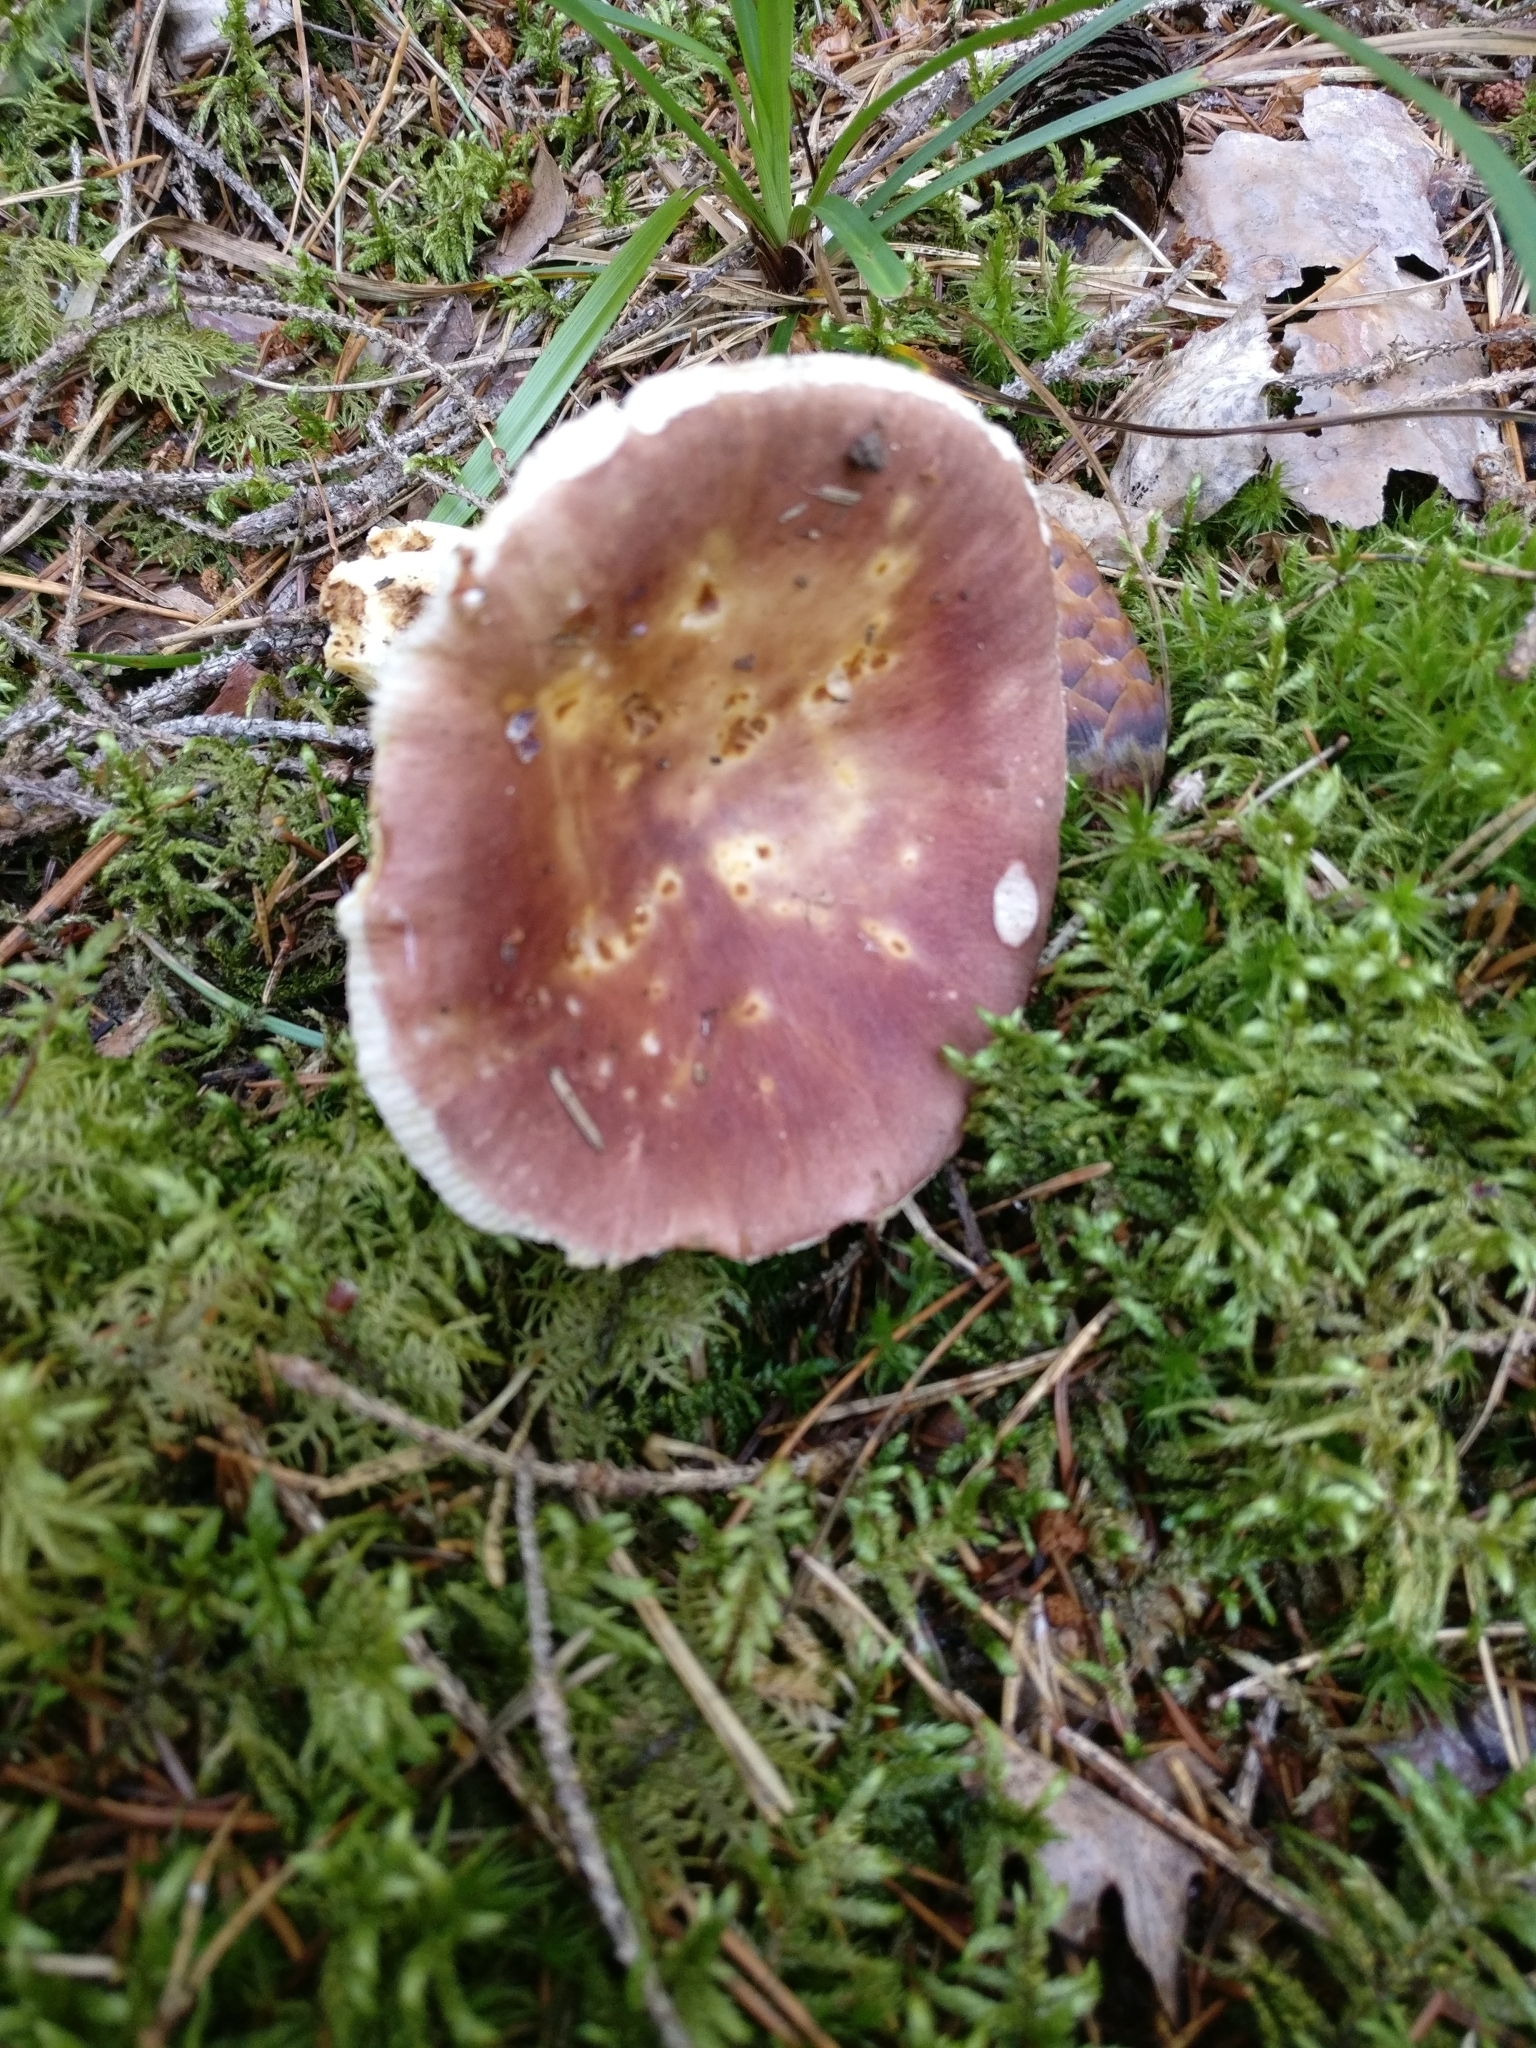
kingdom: Fungi
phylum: Basidiomycota
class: Agaricomycetes
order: Russulales
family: Russulaceae
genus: Russula
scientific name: Russula vesca
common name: Bare-toothed russula
